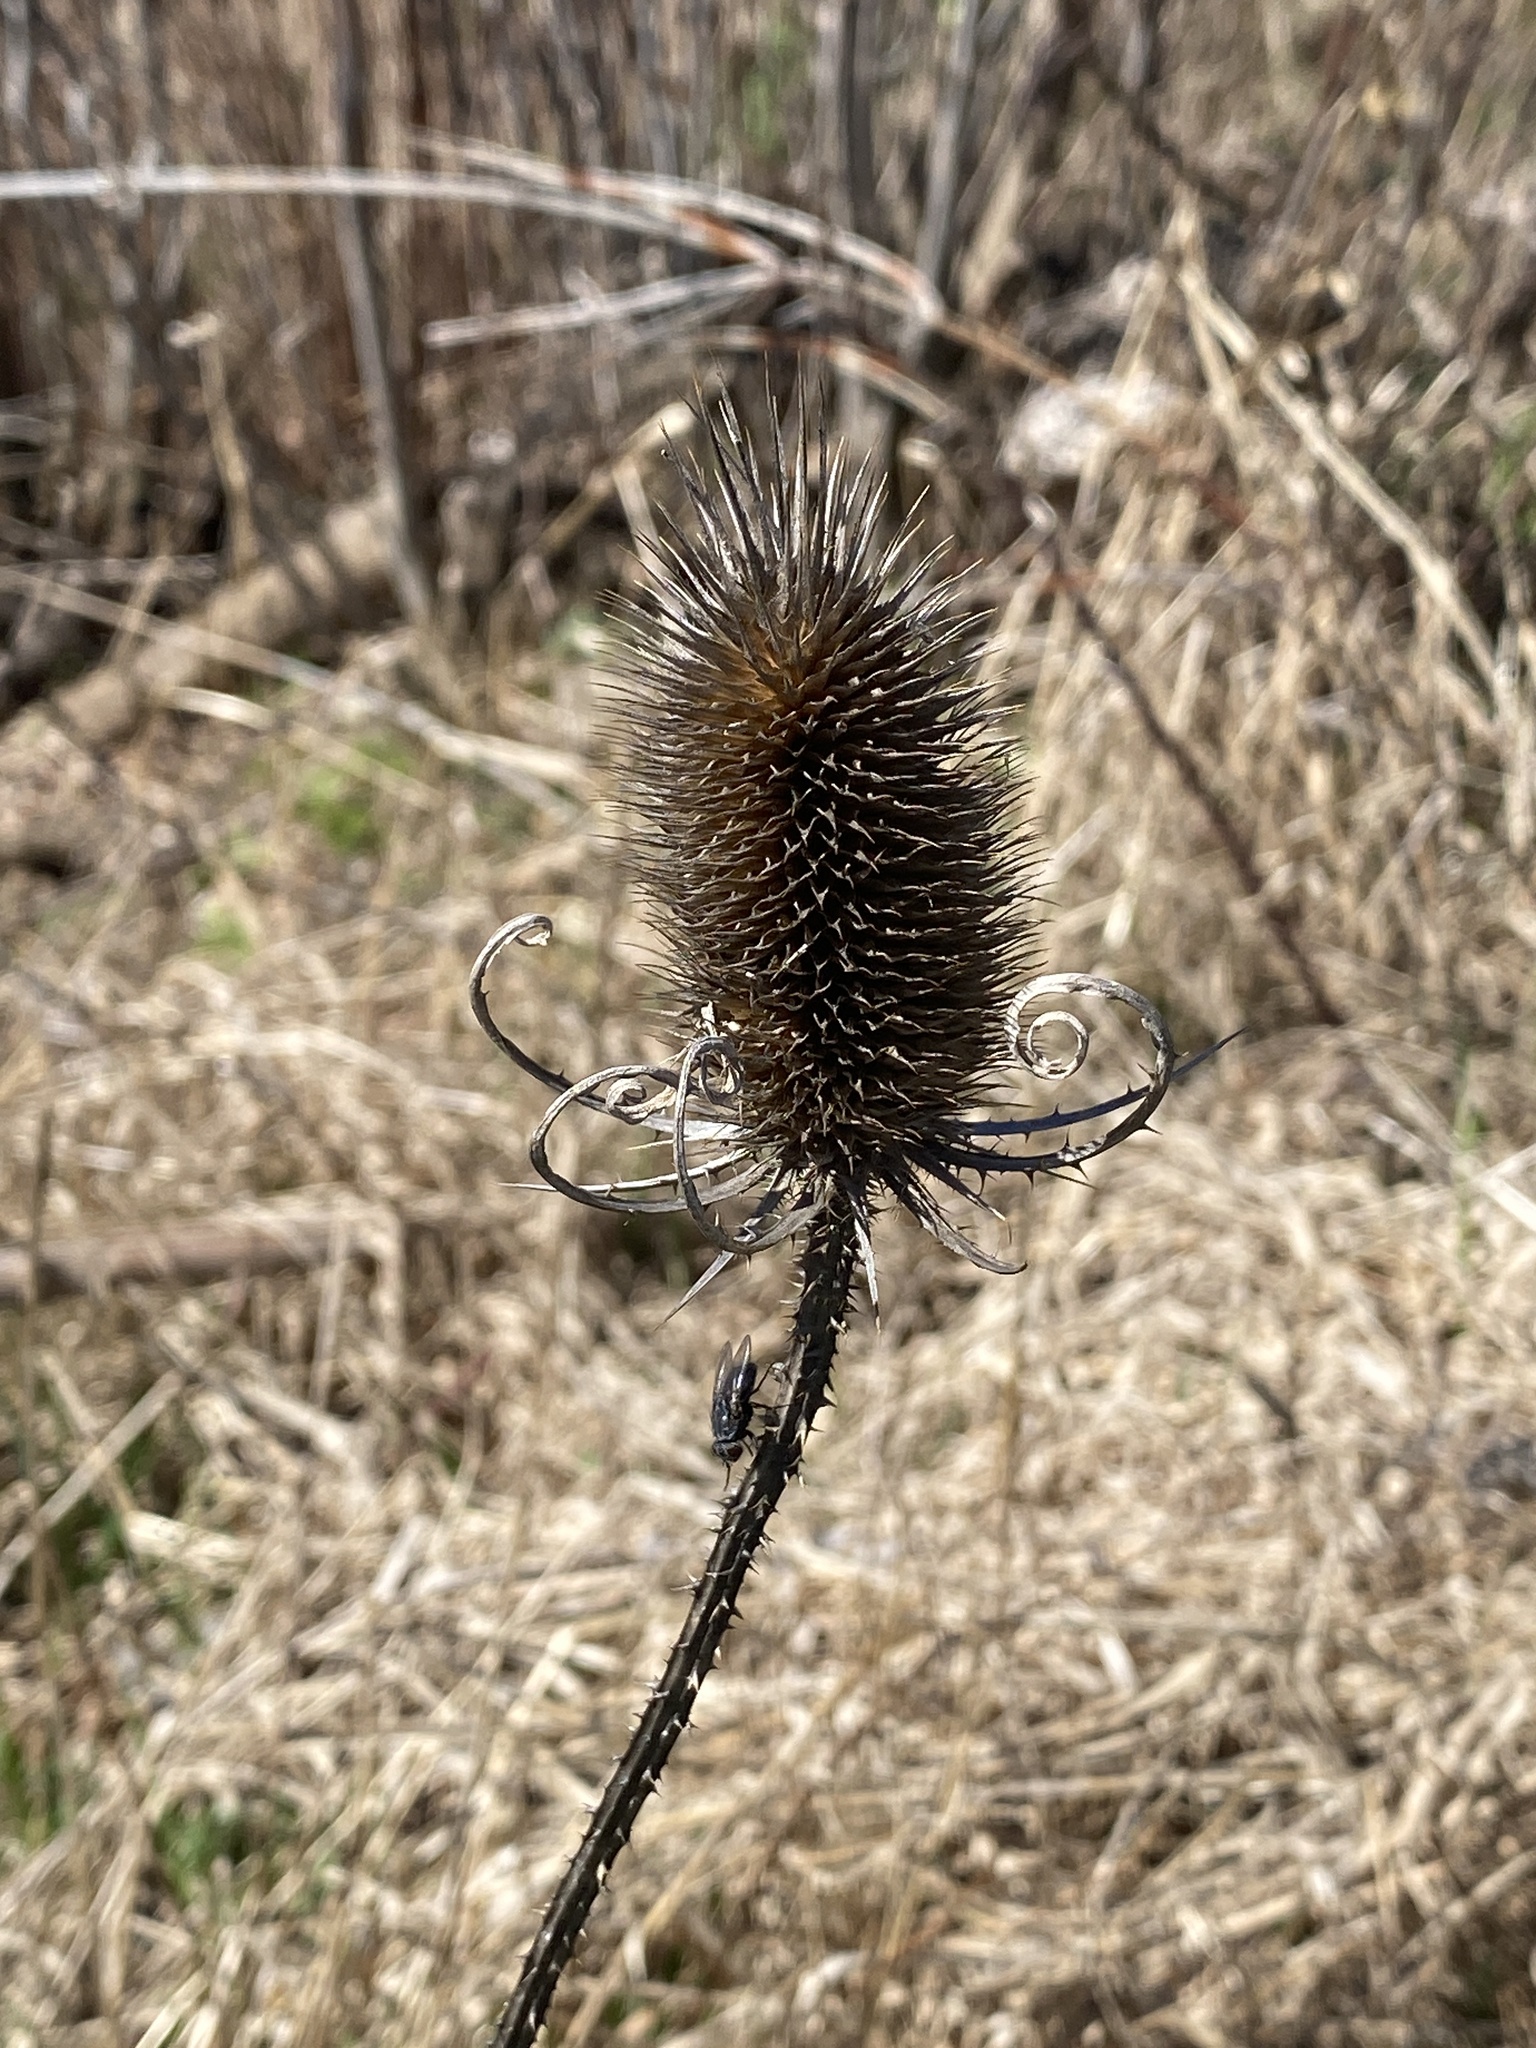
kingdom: Plantae
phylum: Tracheophyta
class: Magnoliopsida
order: Dipsacales
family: Caprifoliaceae
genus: Dipsacus
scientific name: Dipsacus fullonum
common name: Teasel
